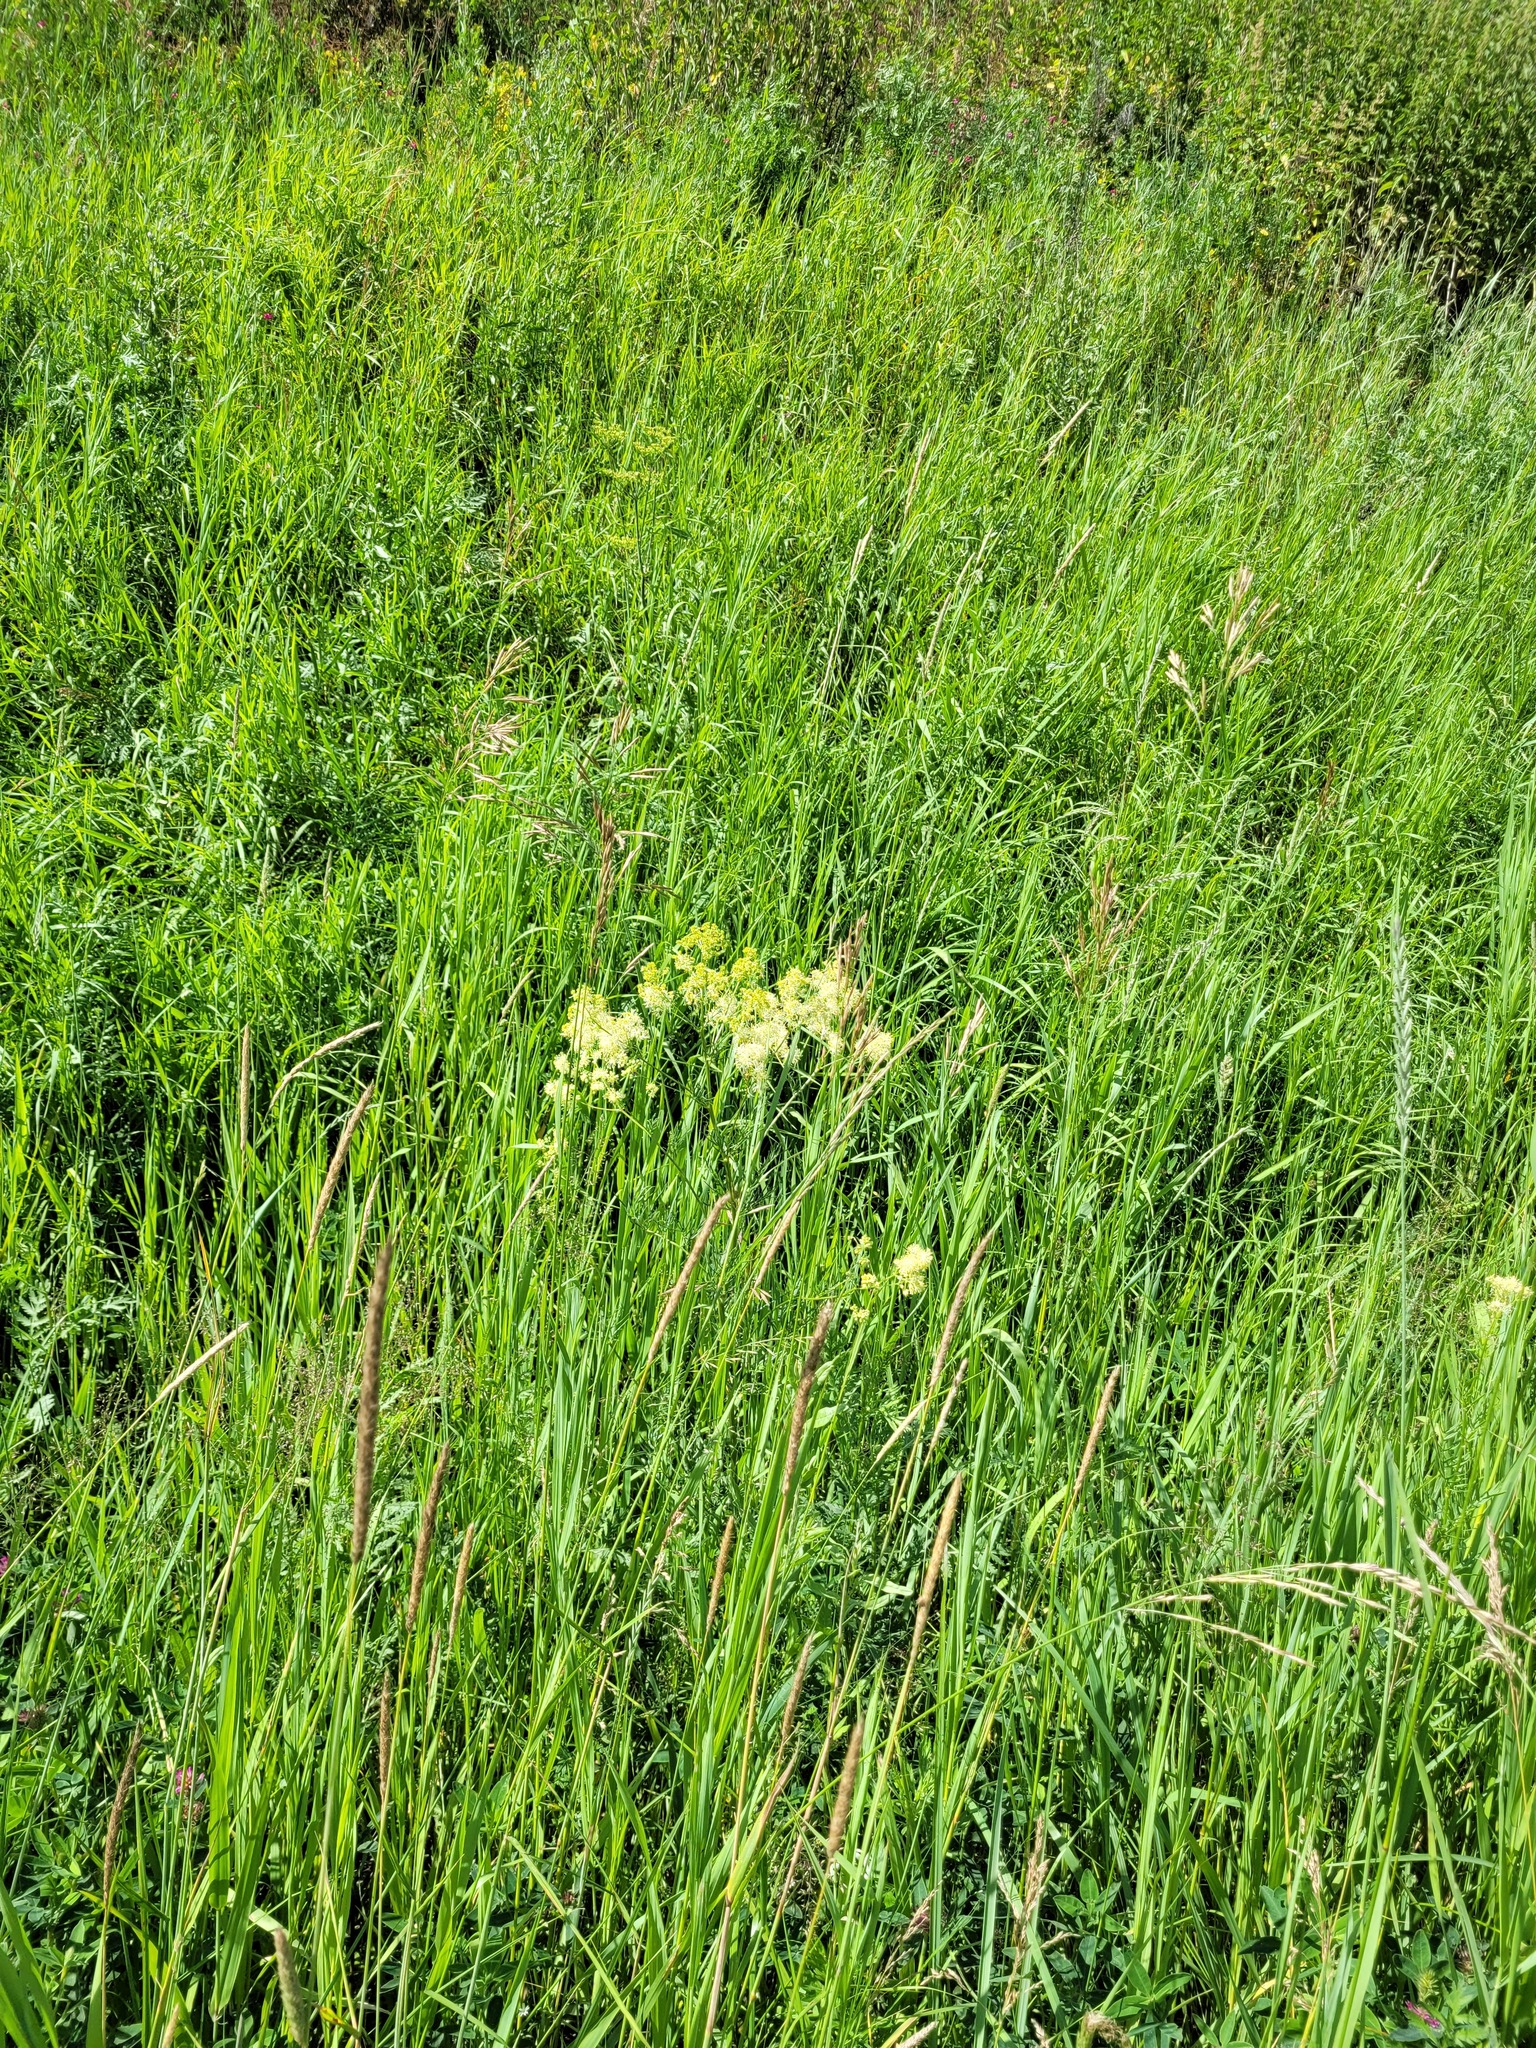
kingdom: Plantae
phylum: Tracheophyta
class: Magnoliopsida
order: Ranunculales
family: Ranunculaceae
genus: Thalictrum
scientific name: Thalictrum lucidum
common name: Shining meadow-rue
